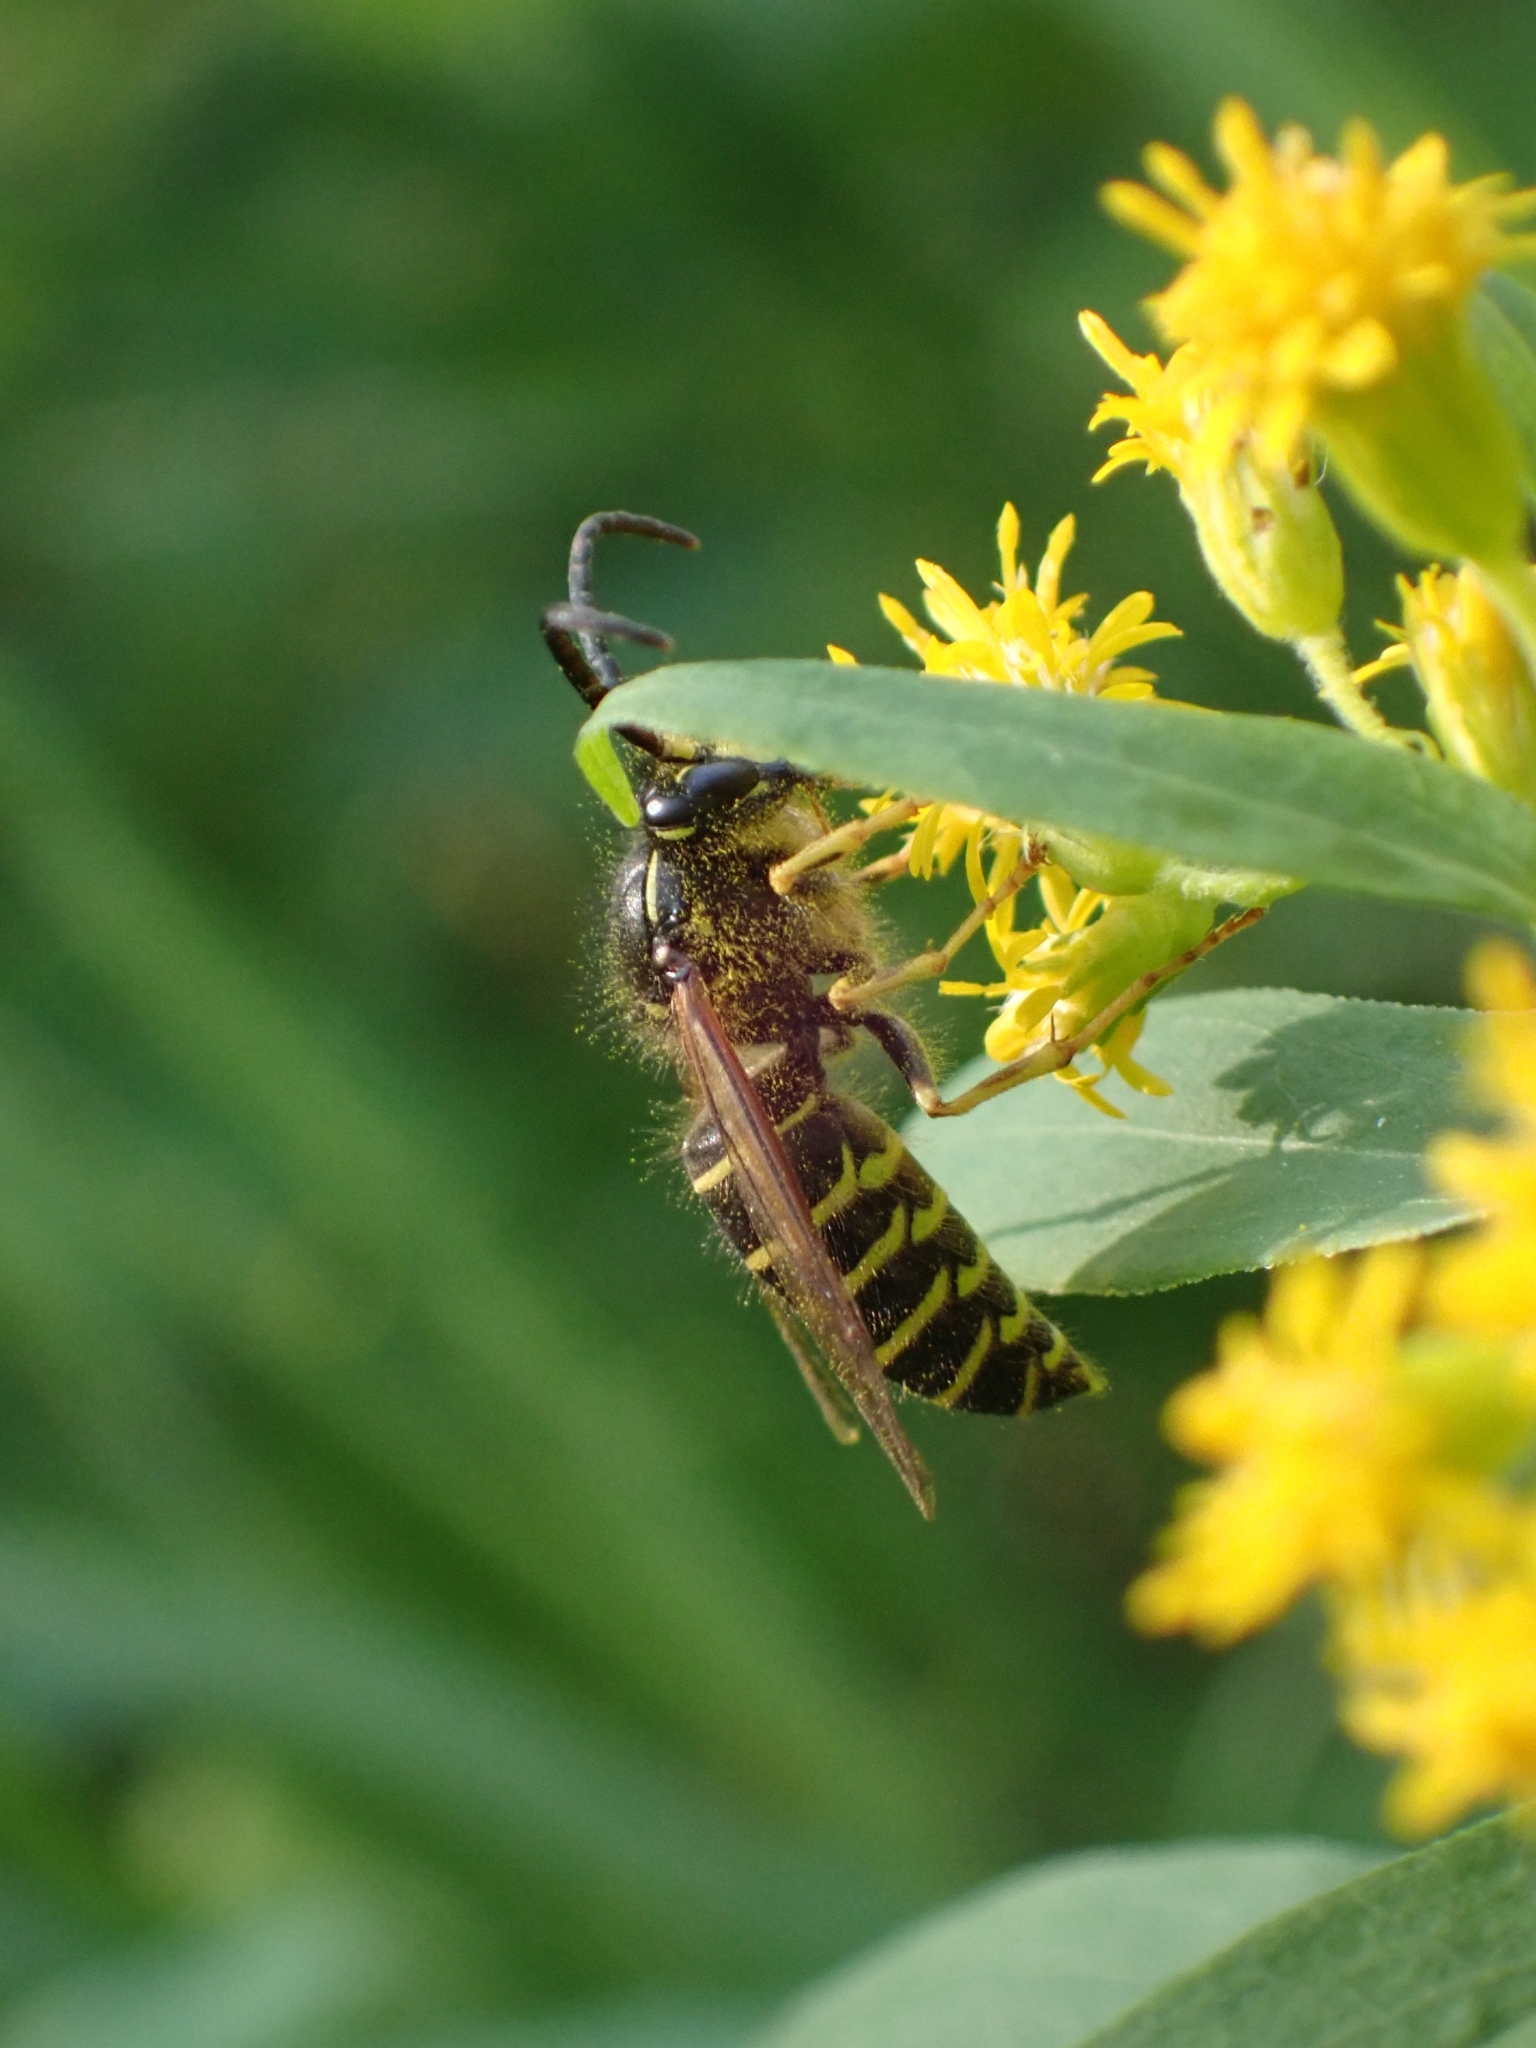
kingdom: Animalia
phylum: Arthropoda
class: Insecta
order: Hymenoptera
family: Vespidae
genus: Dolichovespula
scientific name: Dolichovespula norvegicoides
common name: Northern aerial yellowjacket
